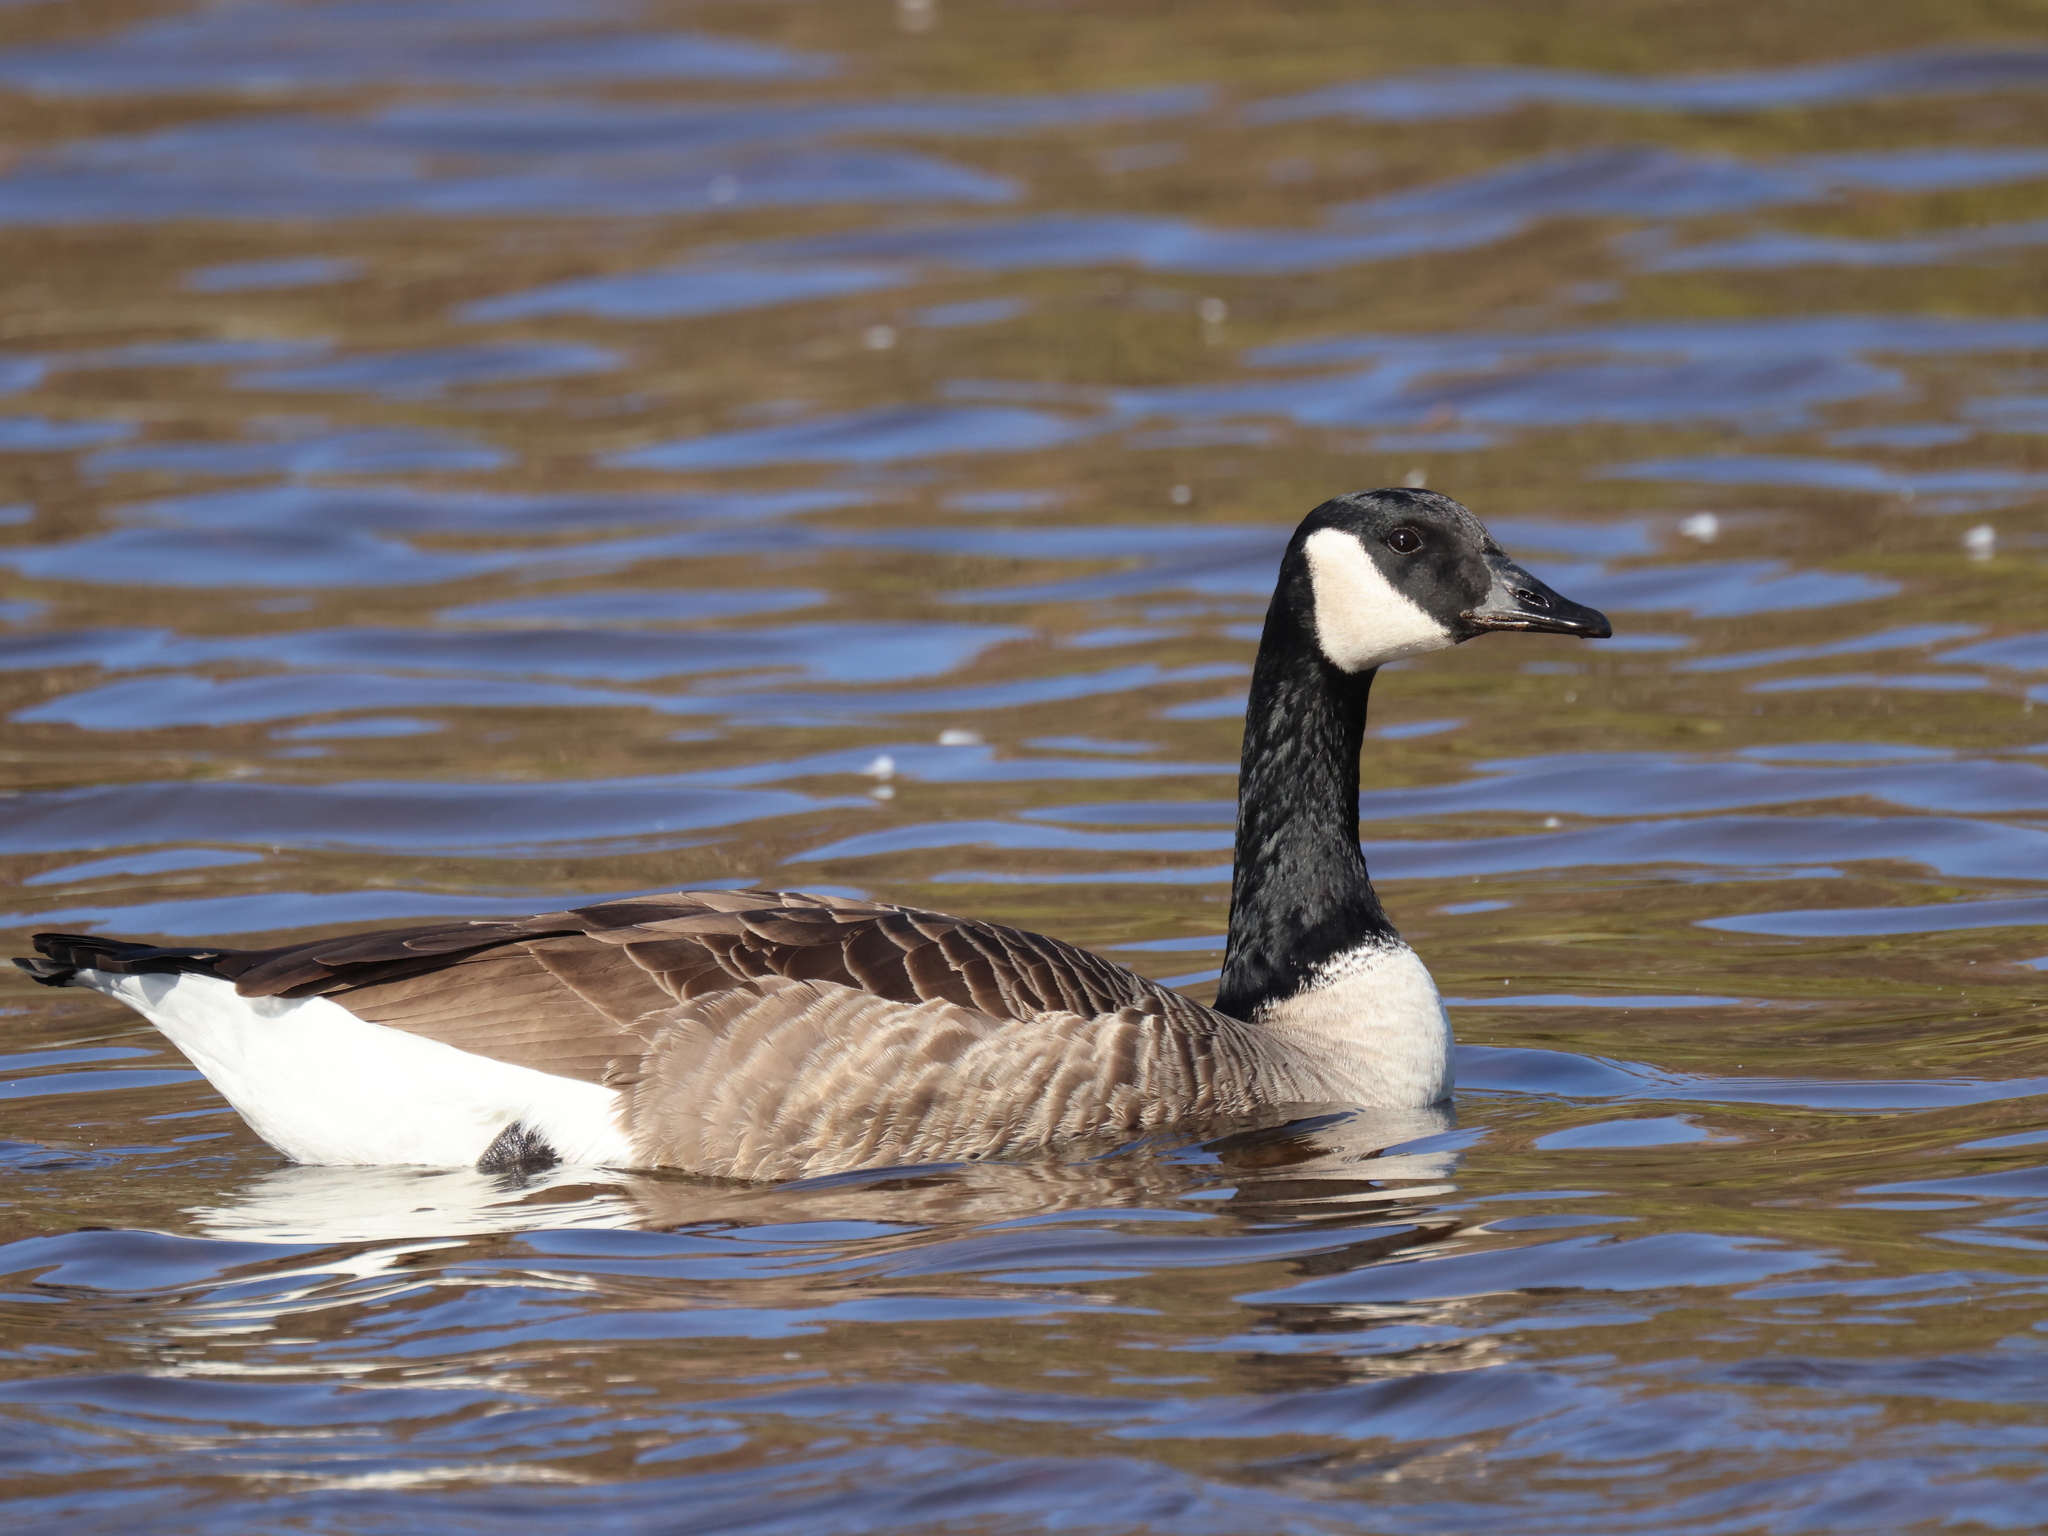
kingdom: Animalia
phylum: Chordata
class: Aves
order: Anseriformes
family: Anatidae
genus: Branta
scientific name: Branta canadensis
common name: Canada goose
